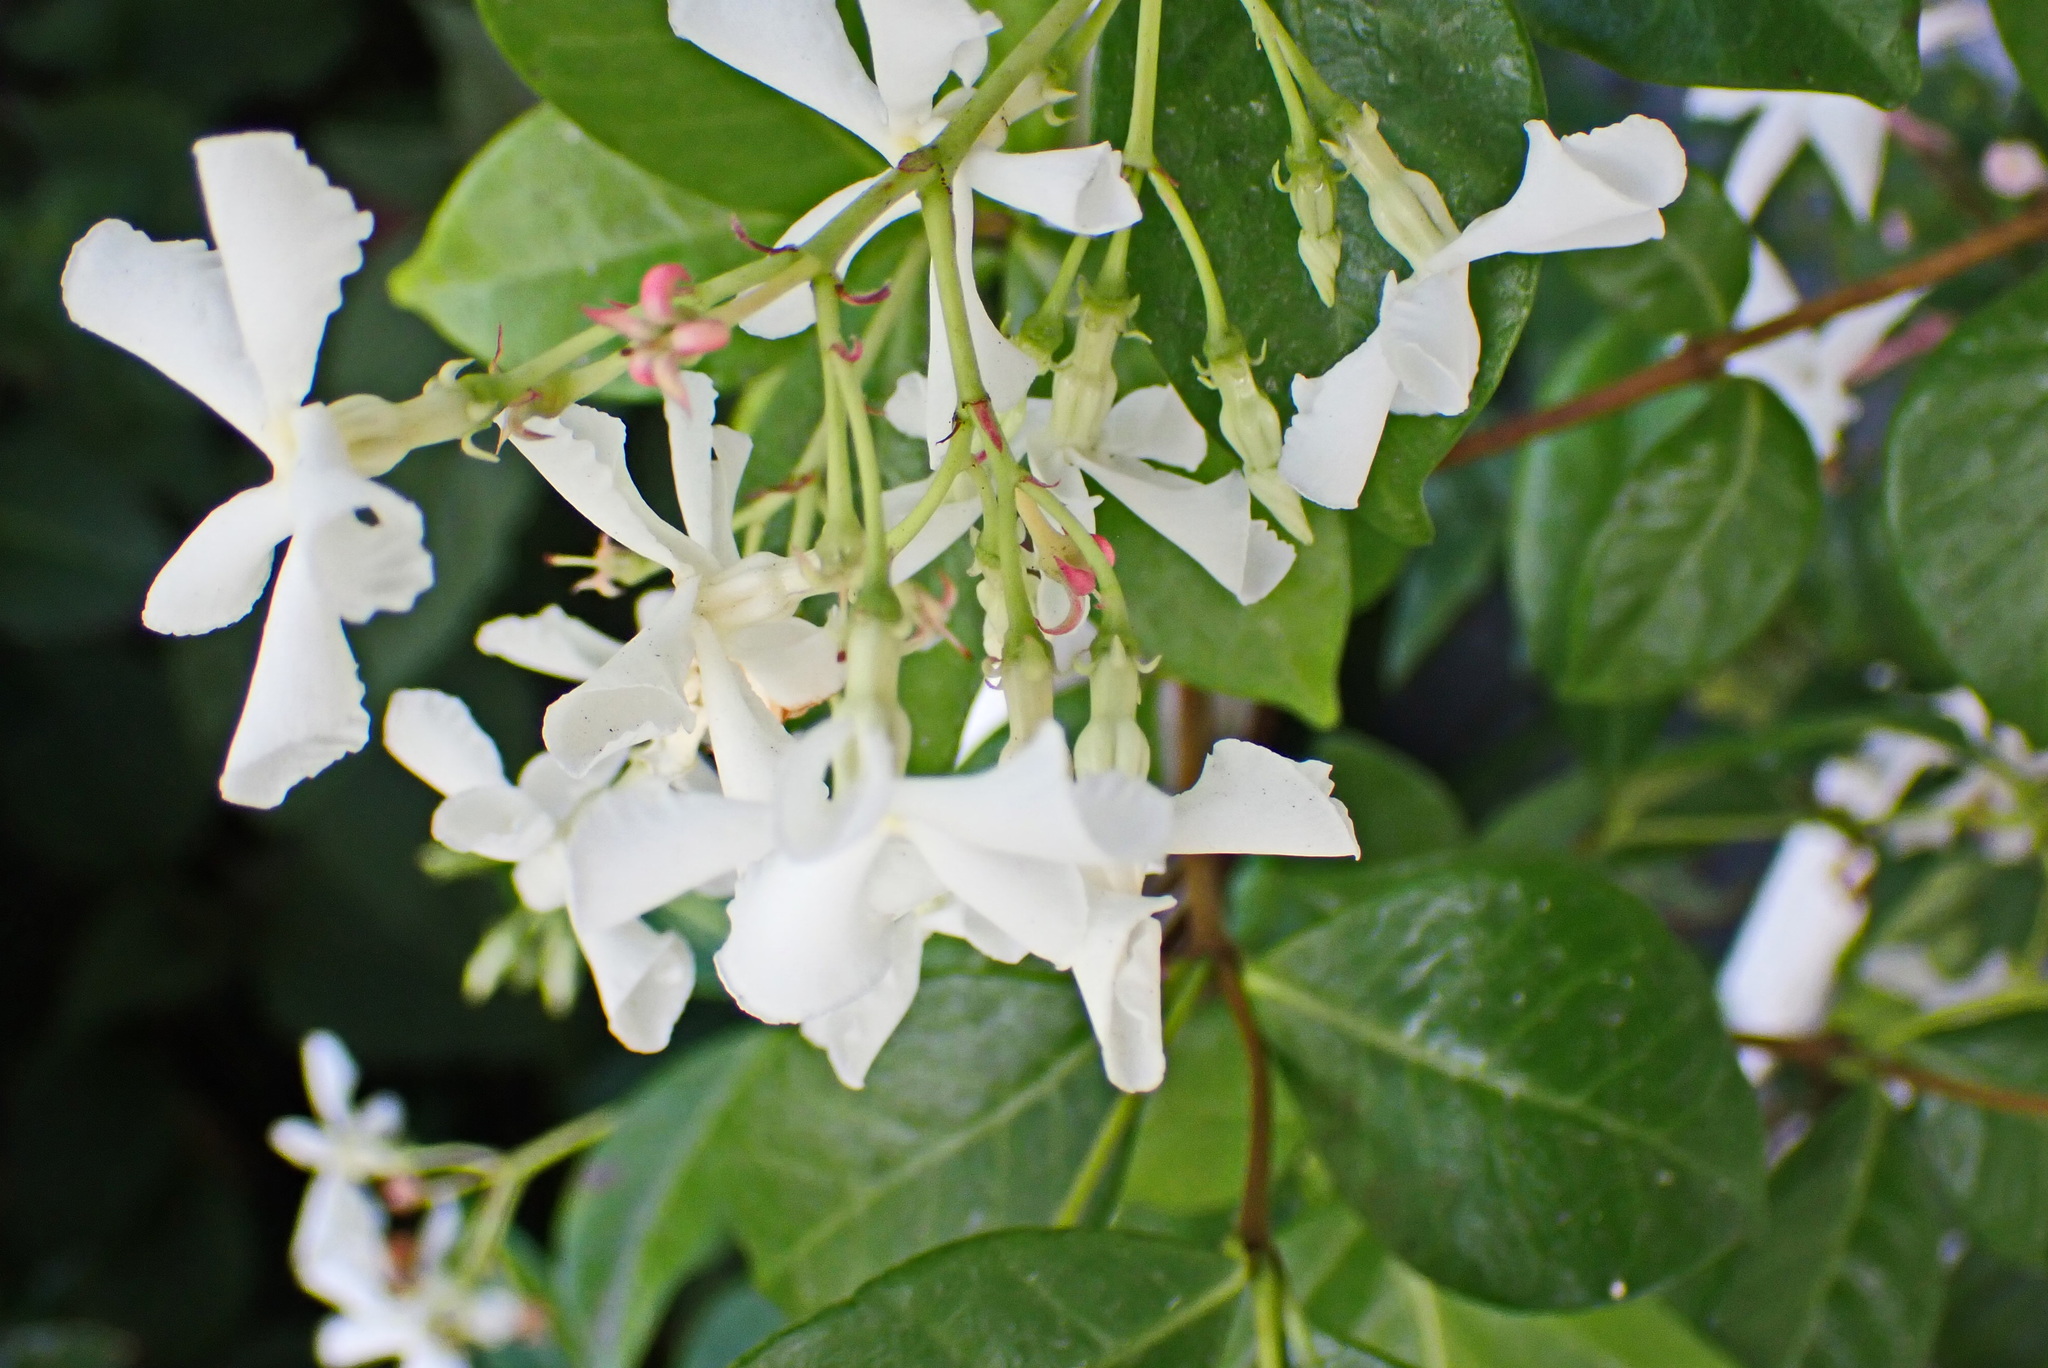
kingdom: Plantae
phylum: Tracheophyta
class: Magnoliopsida
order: Gentianales
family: Apocynaceae
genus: Trachelospermum
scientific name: Trachelospermum jasminoides
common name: Confederate jasmine
